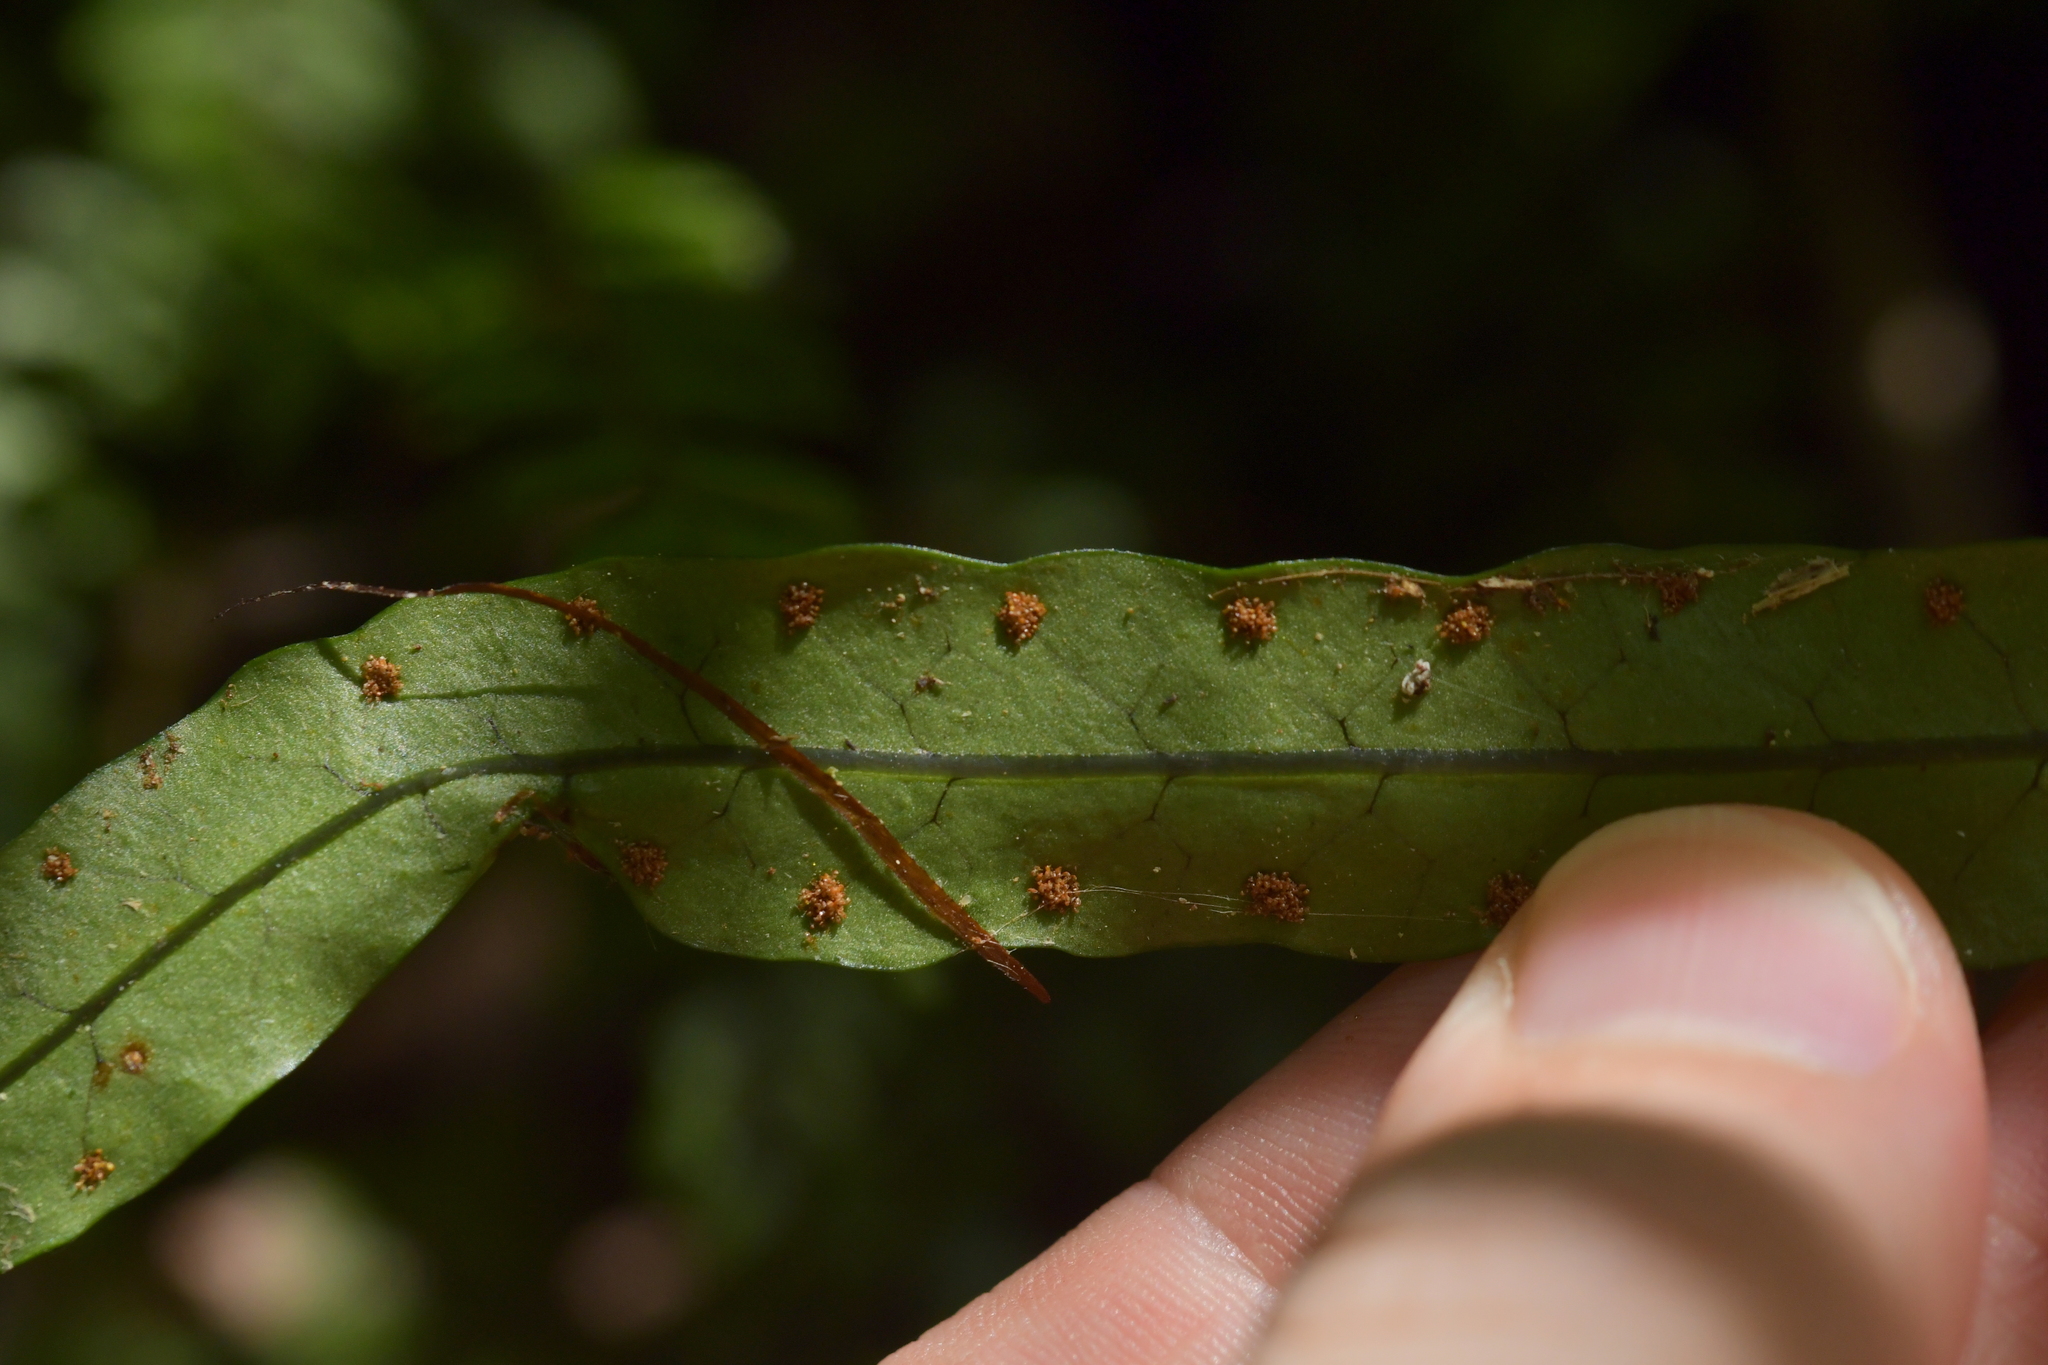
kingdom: Plantae
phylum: Tracheophyta
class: Polypodiopsida
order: Polypodiales
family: Polypodiaceae
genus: Lecanopteris
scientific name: Lecanopteris scandens
